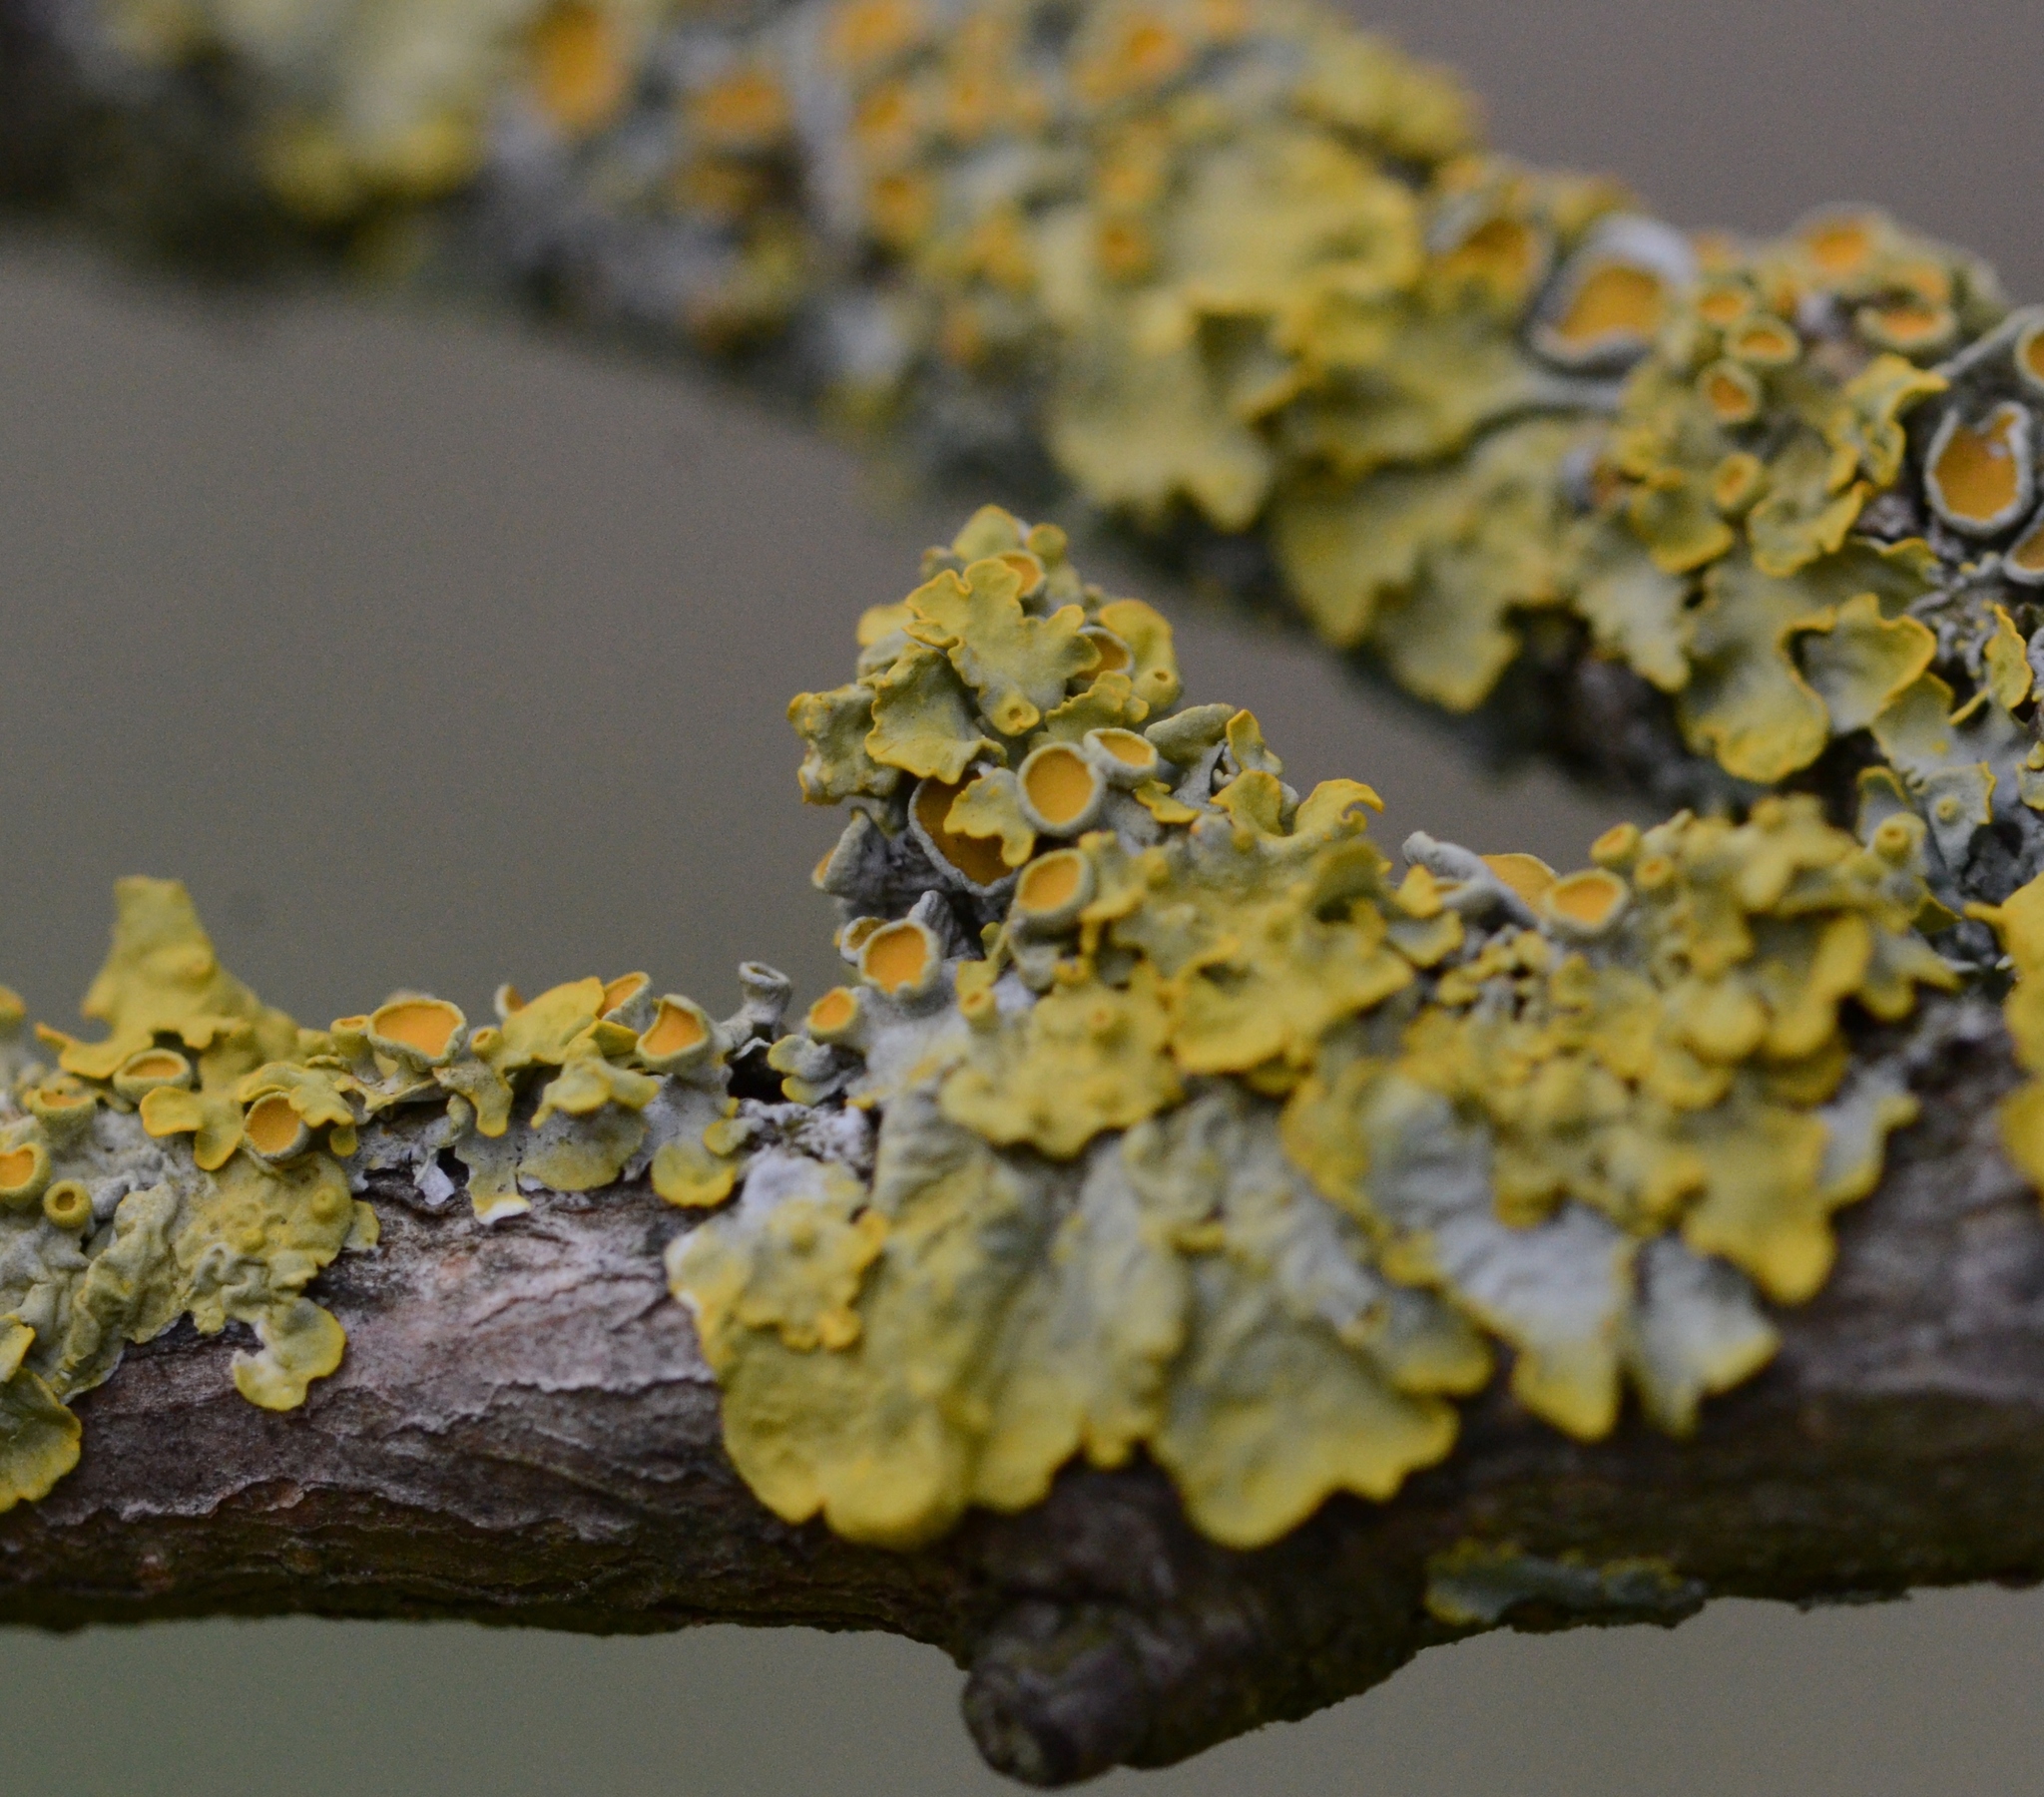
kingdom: Fungi
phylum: Ascomycota
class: Lecanoromycetes
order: Teloschistales
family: Teloschistaceae
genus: Xanthoria
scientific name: Xanthoria parietina
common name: Common orange lichen
